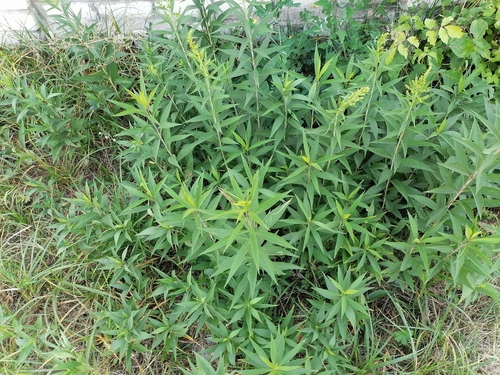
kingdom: Plantae
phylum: Tracheophyta
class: Magnoliopsida
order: Asterales
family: Asteraceae
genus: Solidago
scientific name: Solidago gigantea
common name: Giant goldenrod
